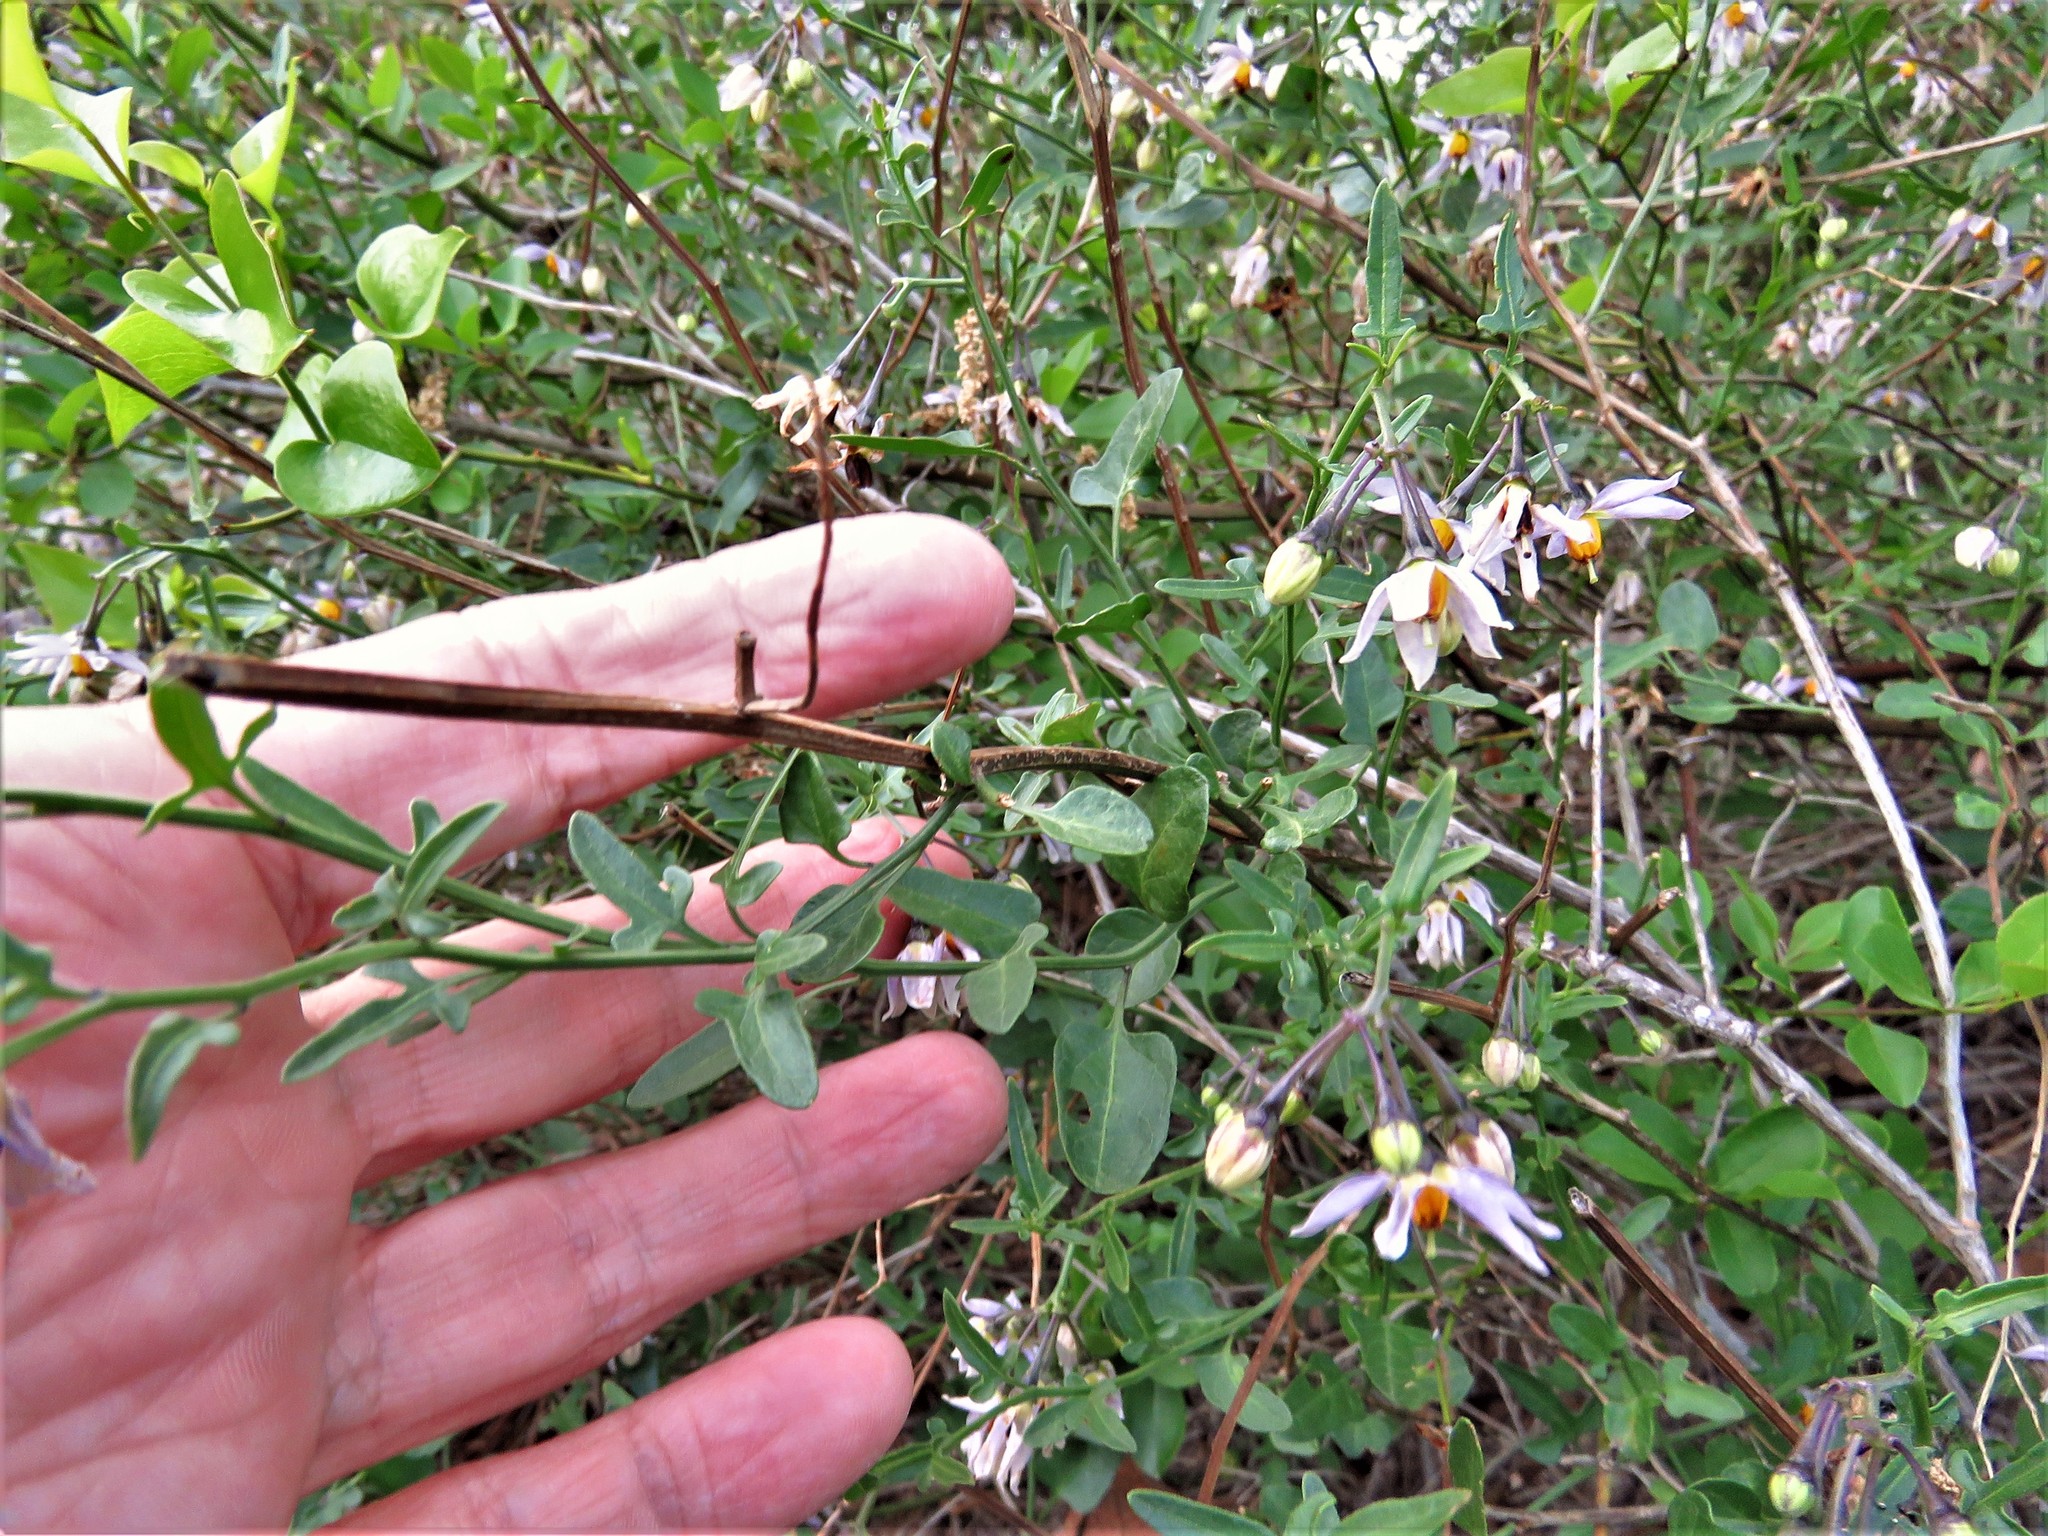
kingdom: Plantae
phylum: Tracheophyta
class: Magnoliopsida
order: Solanales
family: Solanaceae
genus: Solanum
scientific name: Solanum triquetrum
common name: Texas nightshade
